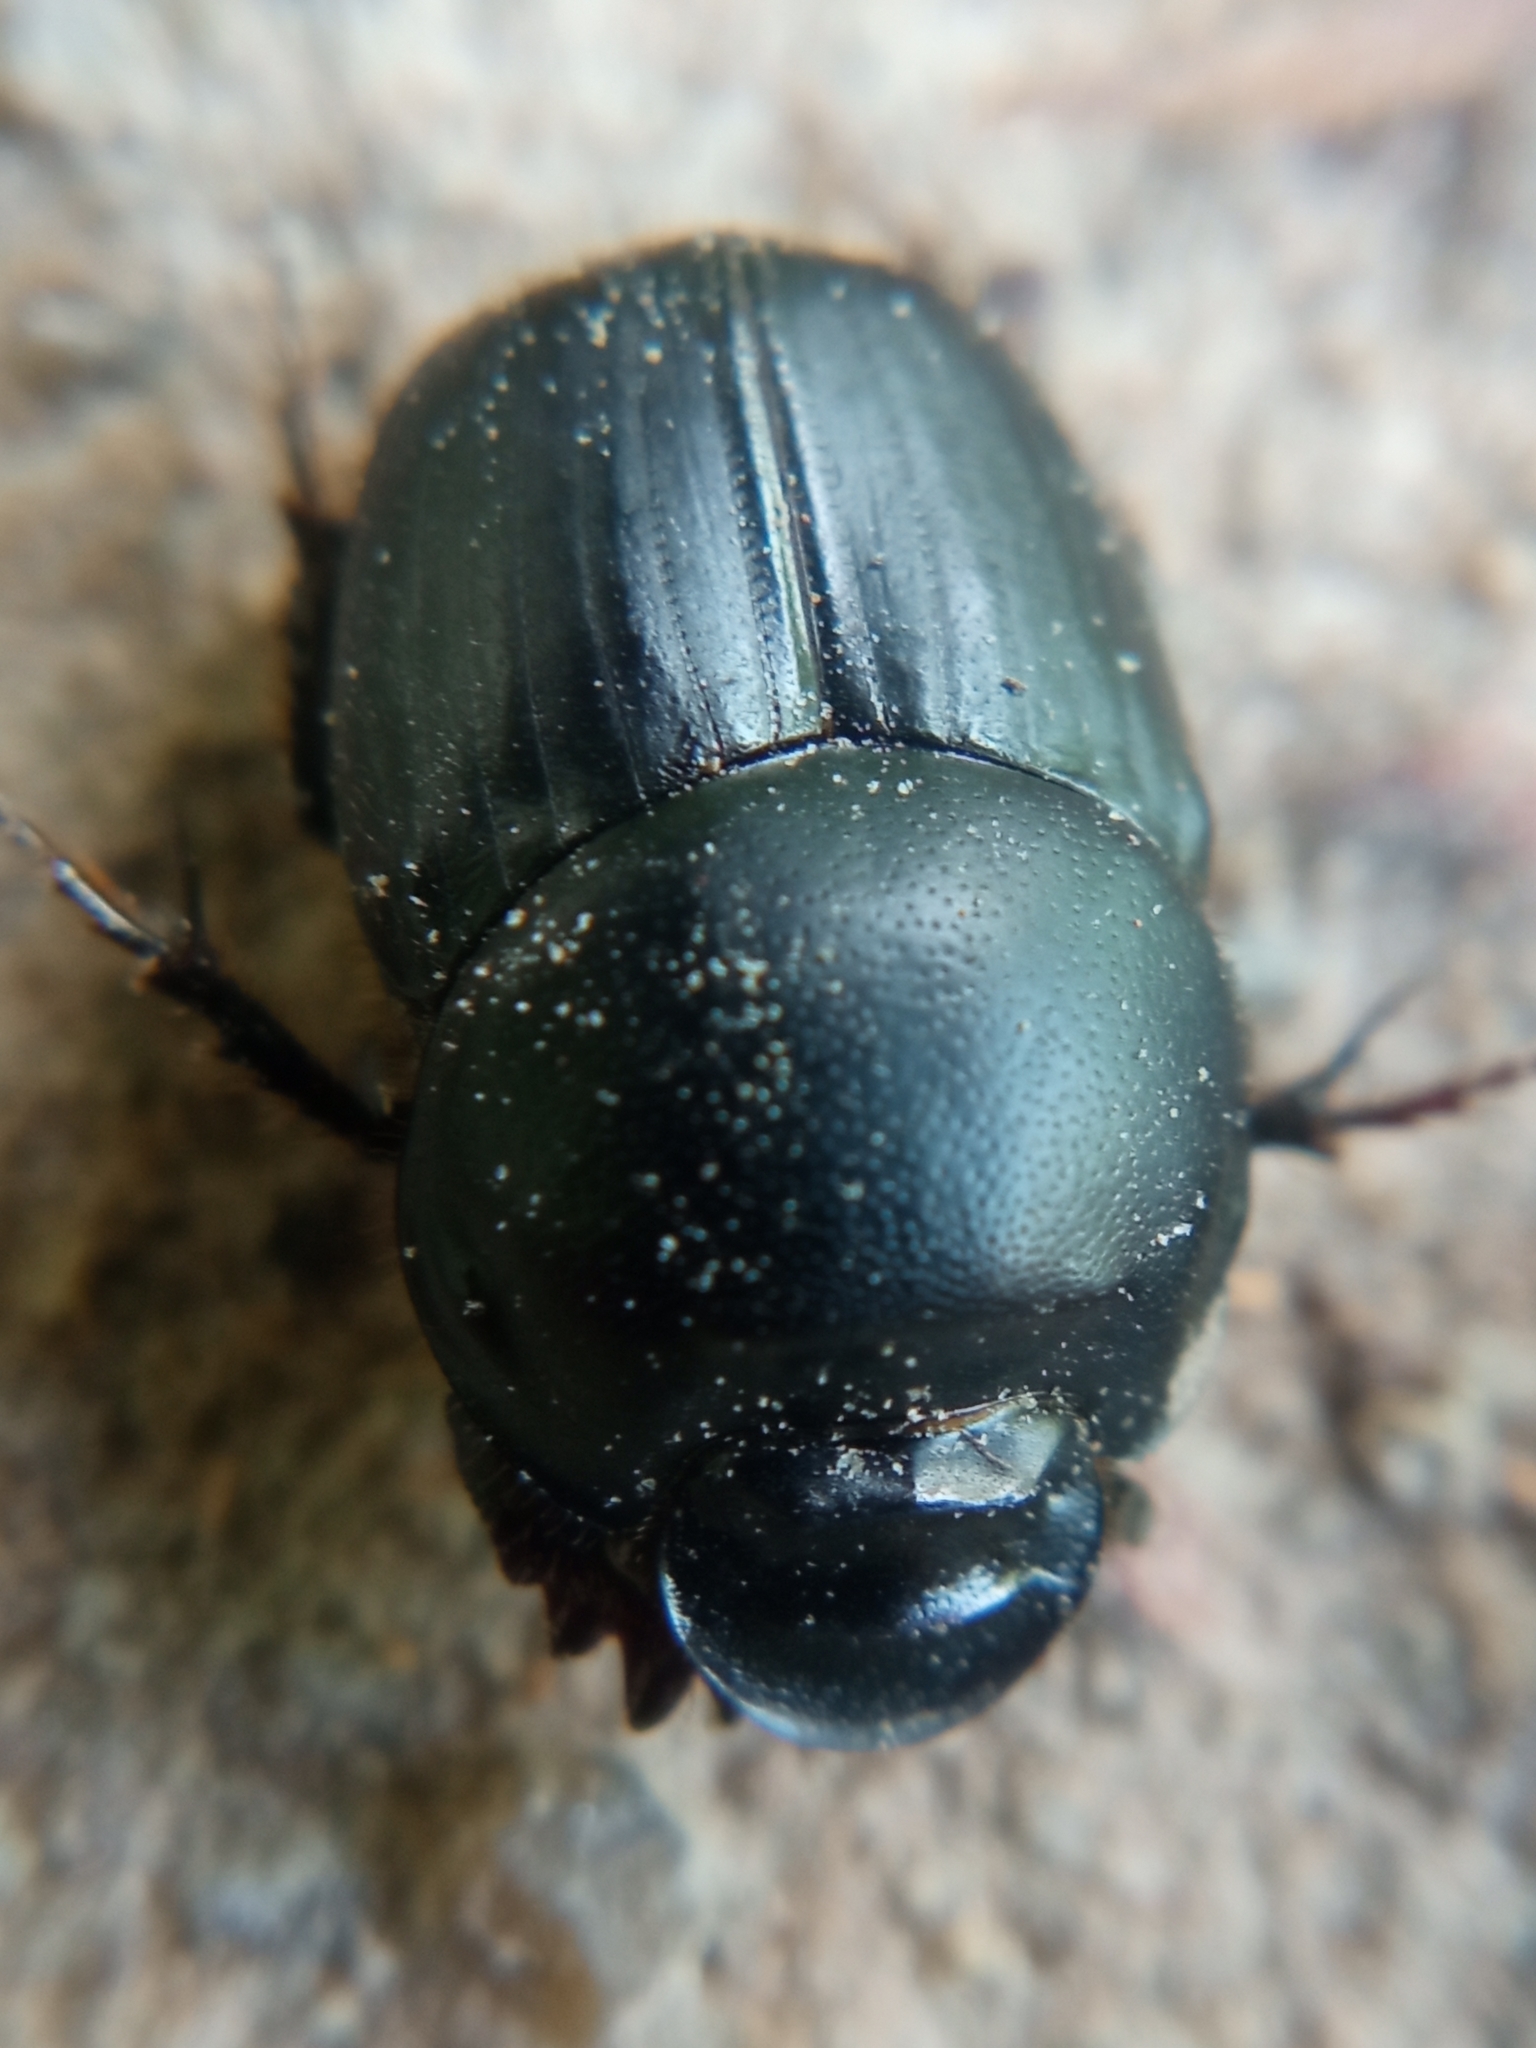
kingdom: Animalia
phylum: Arthropoda
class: Insecta
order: Coleoptera
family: Scarabaeidae
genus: Onthophagus
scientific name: Onthophagus taurus
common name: Bullhorned dung beetle
